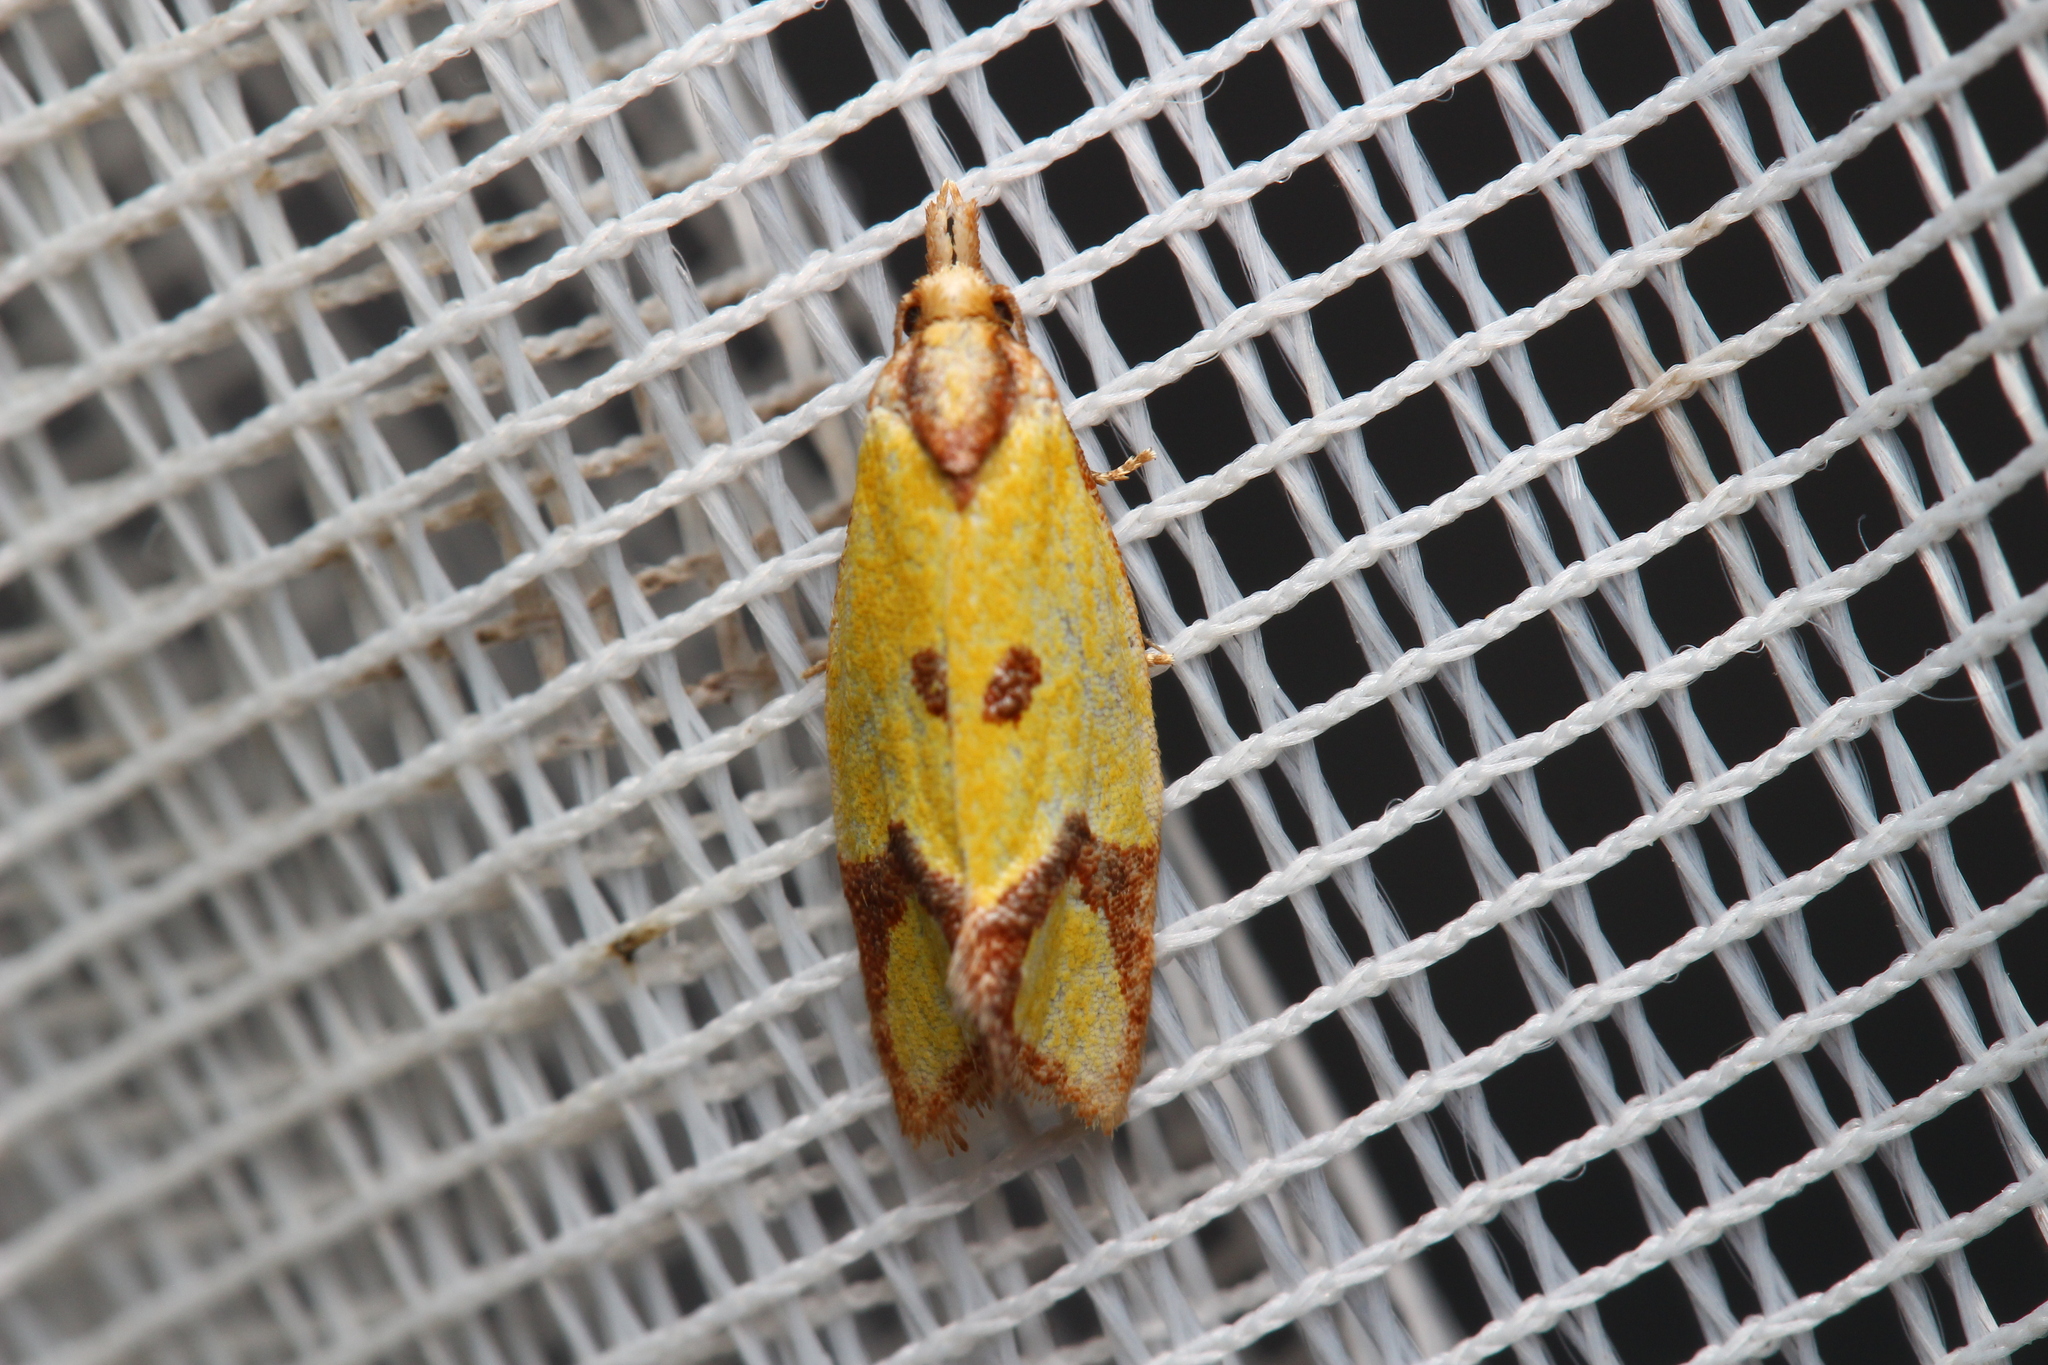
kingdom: Animalia
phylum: Arthropoda
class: Insecta
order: Lepidoptera
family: Tortricidae
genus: Agapeta
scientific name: Agapeta zoegana
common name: Sulfur knapweed root moth
